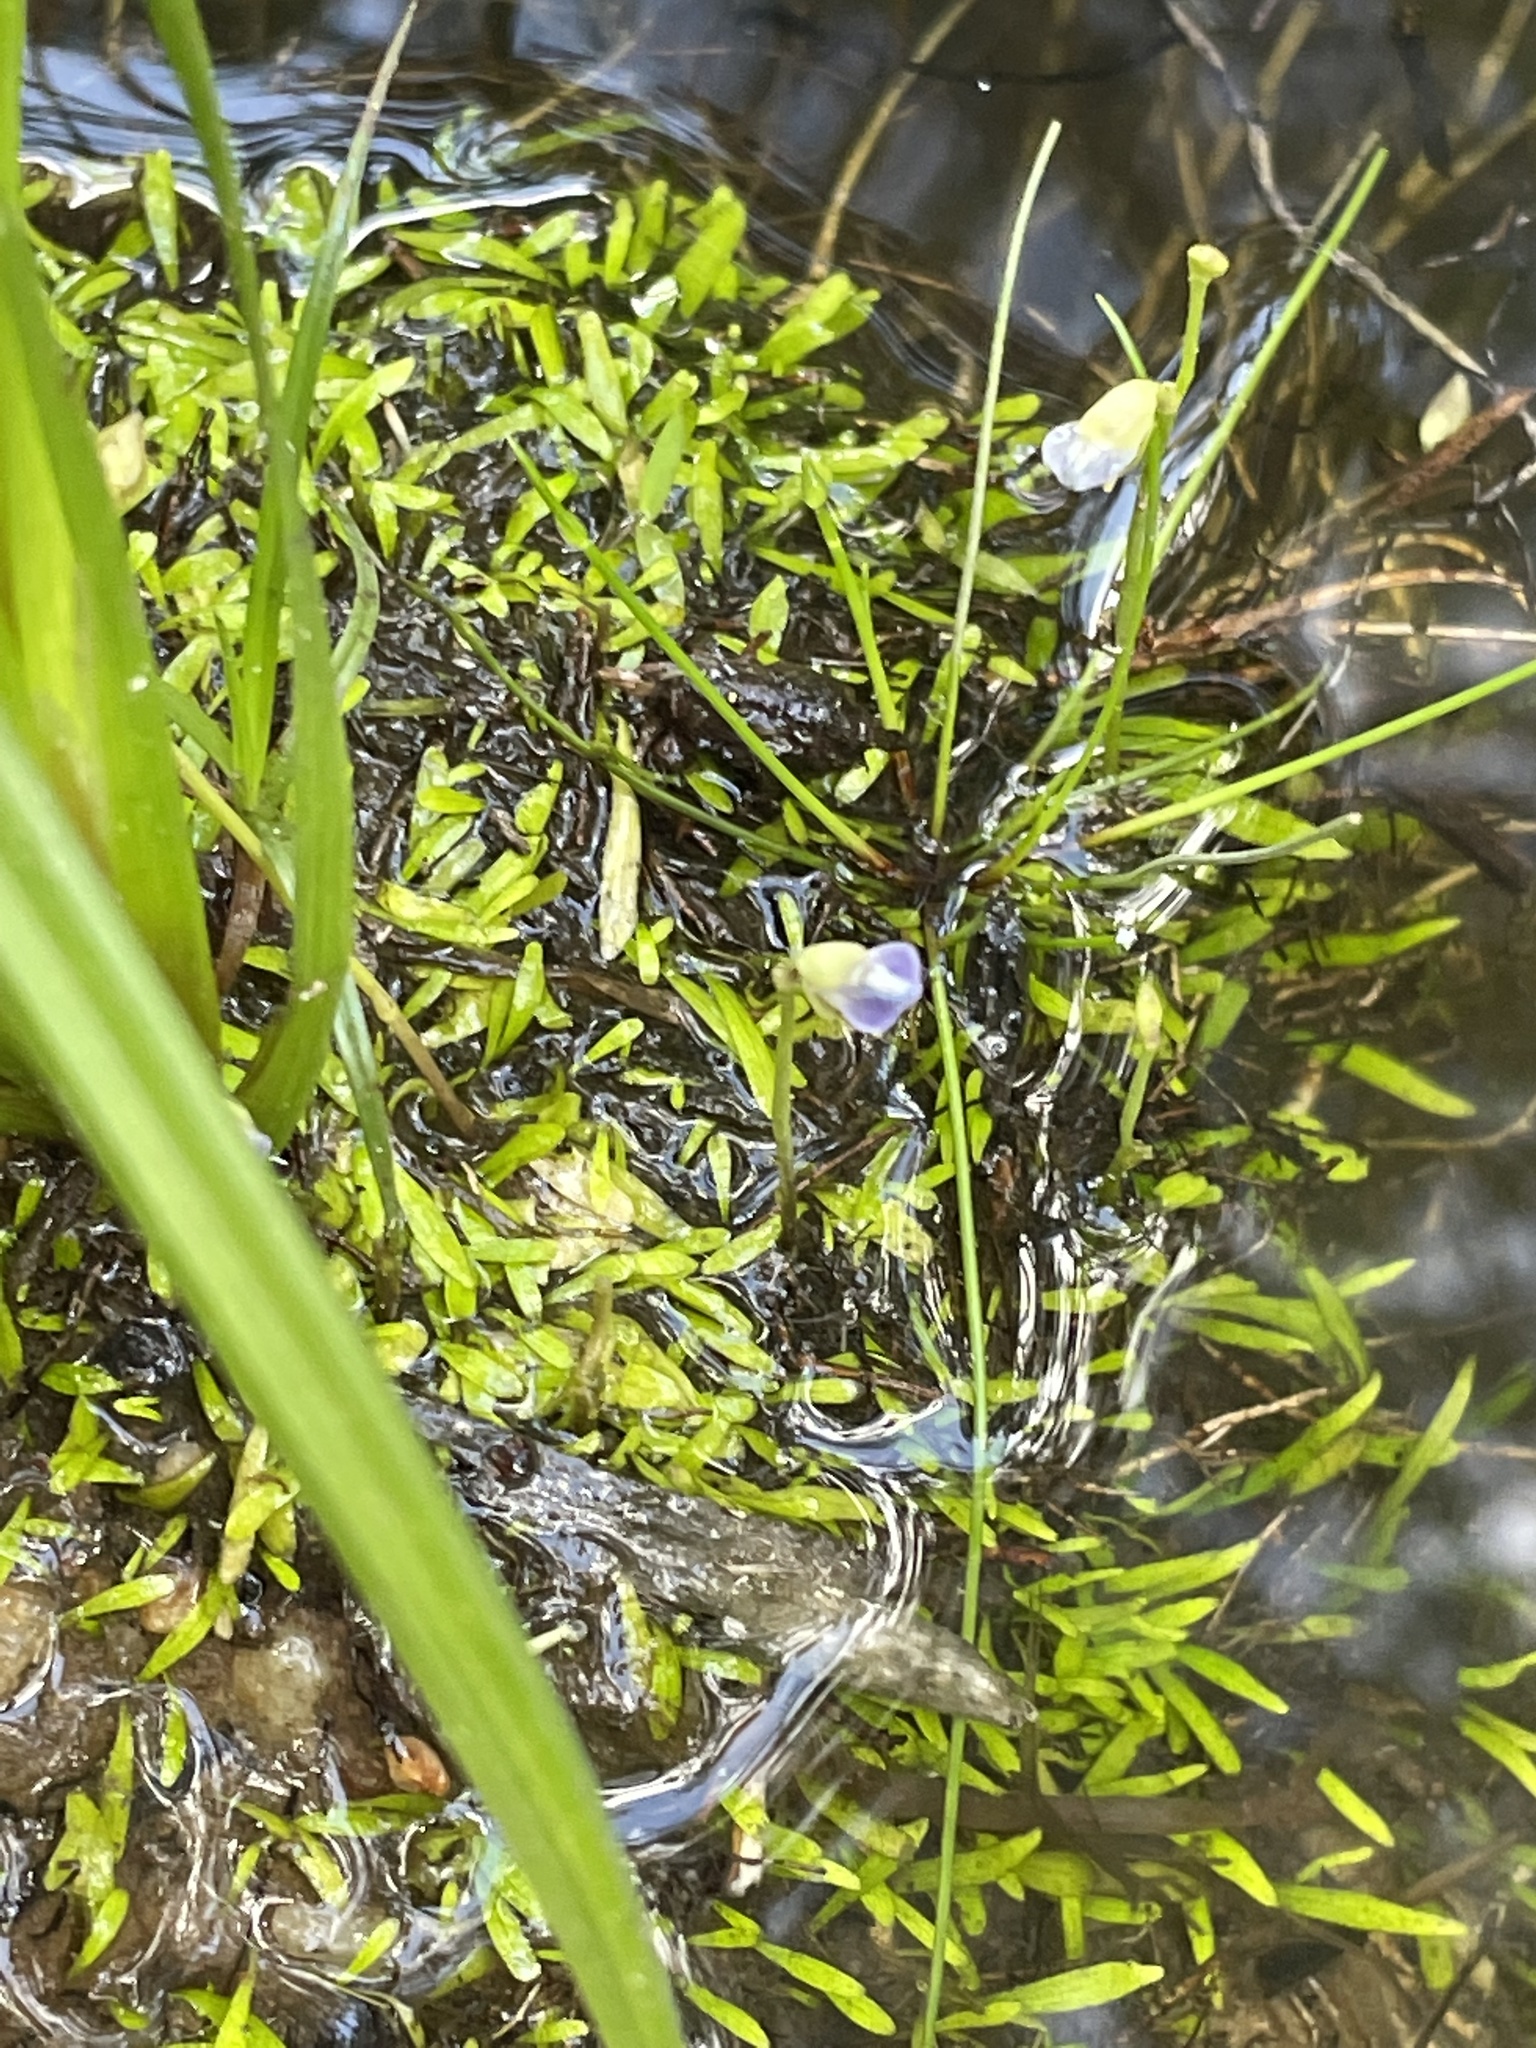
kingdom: Plantae
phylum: Tracheophyta
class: Magnoliopsida
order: Lamiales
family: Lentibulariaceae
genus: Utricularia
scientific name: Utricularia uliginosa
